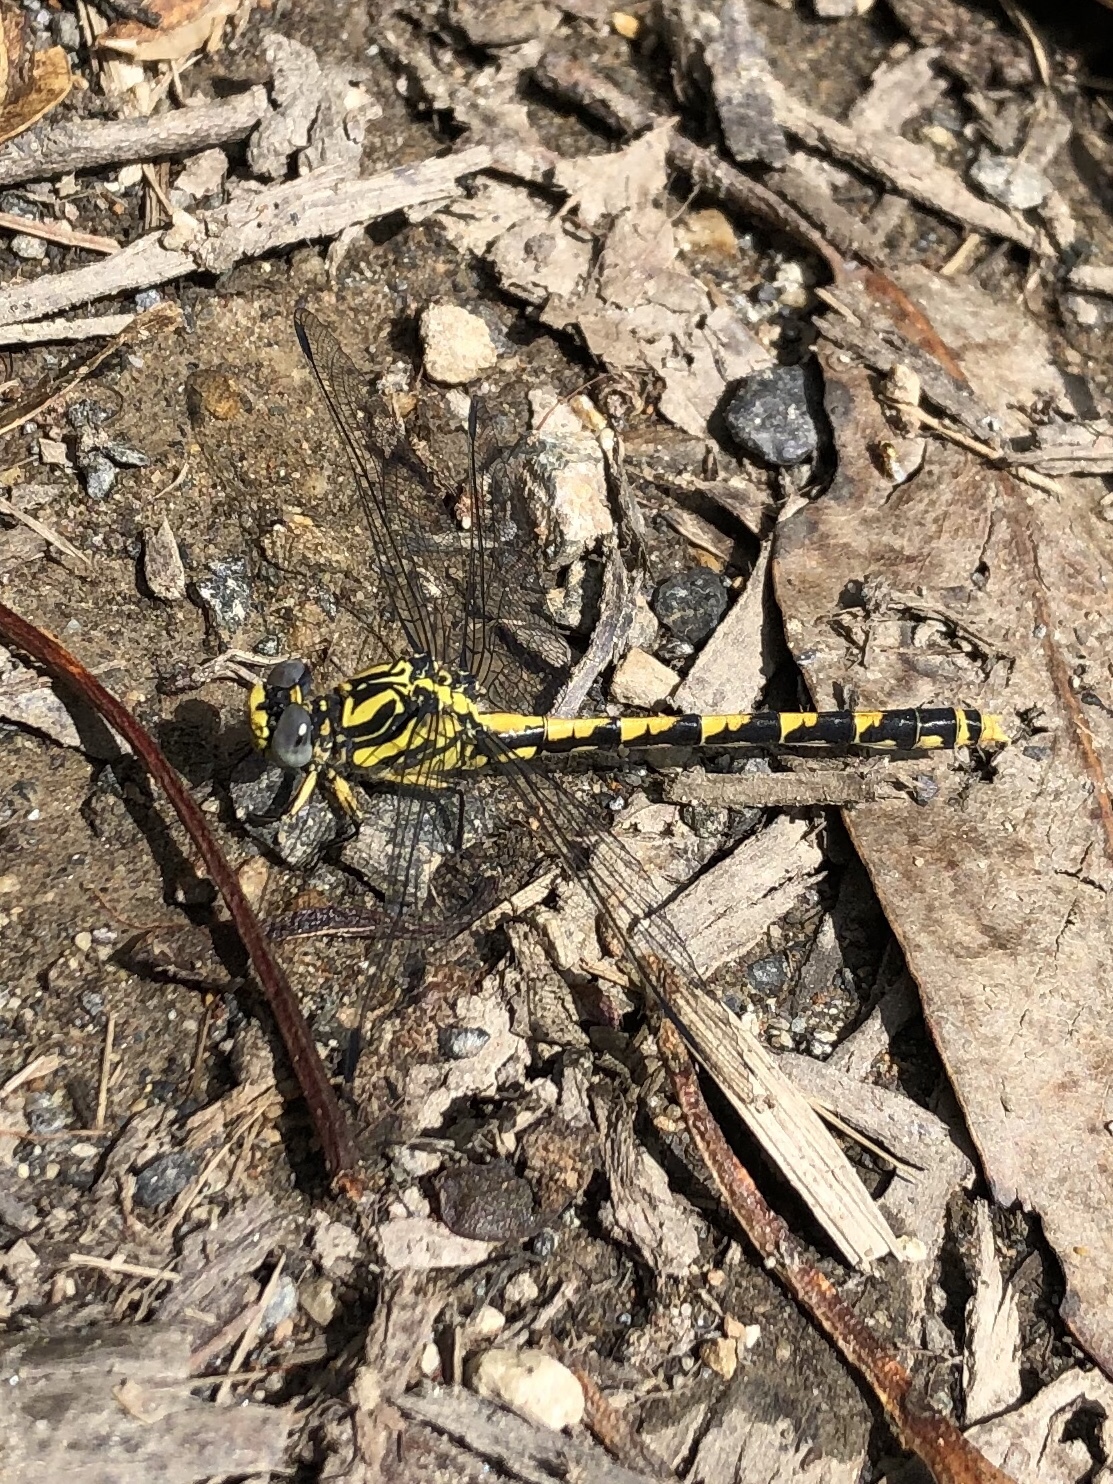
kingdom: Animalia
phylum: Arthropoda
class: Insecta
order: Odonata
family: Gomphidae
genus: Onychogomphus
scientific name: Onychogomphus uncatus
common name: Large pincertail
